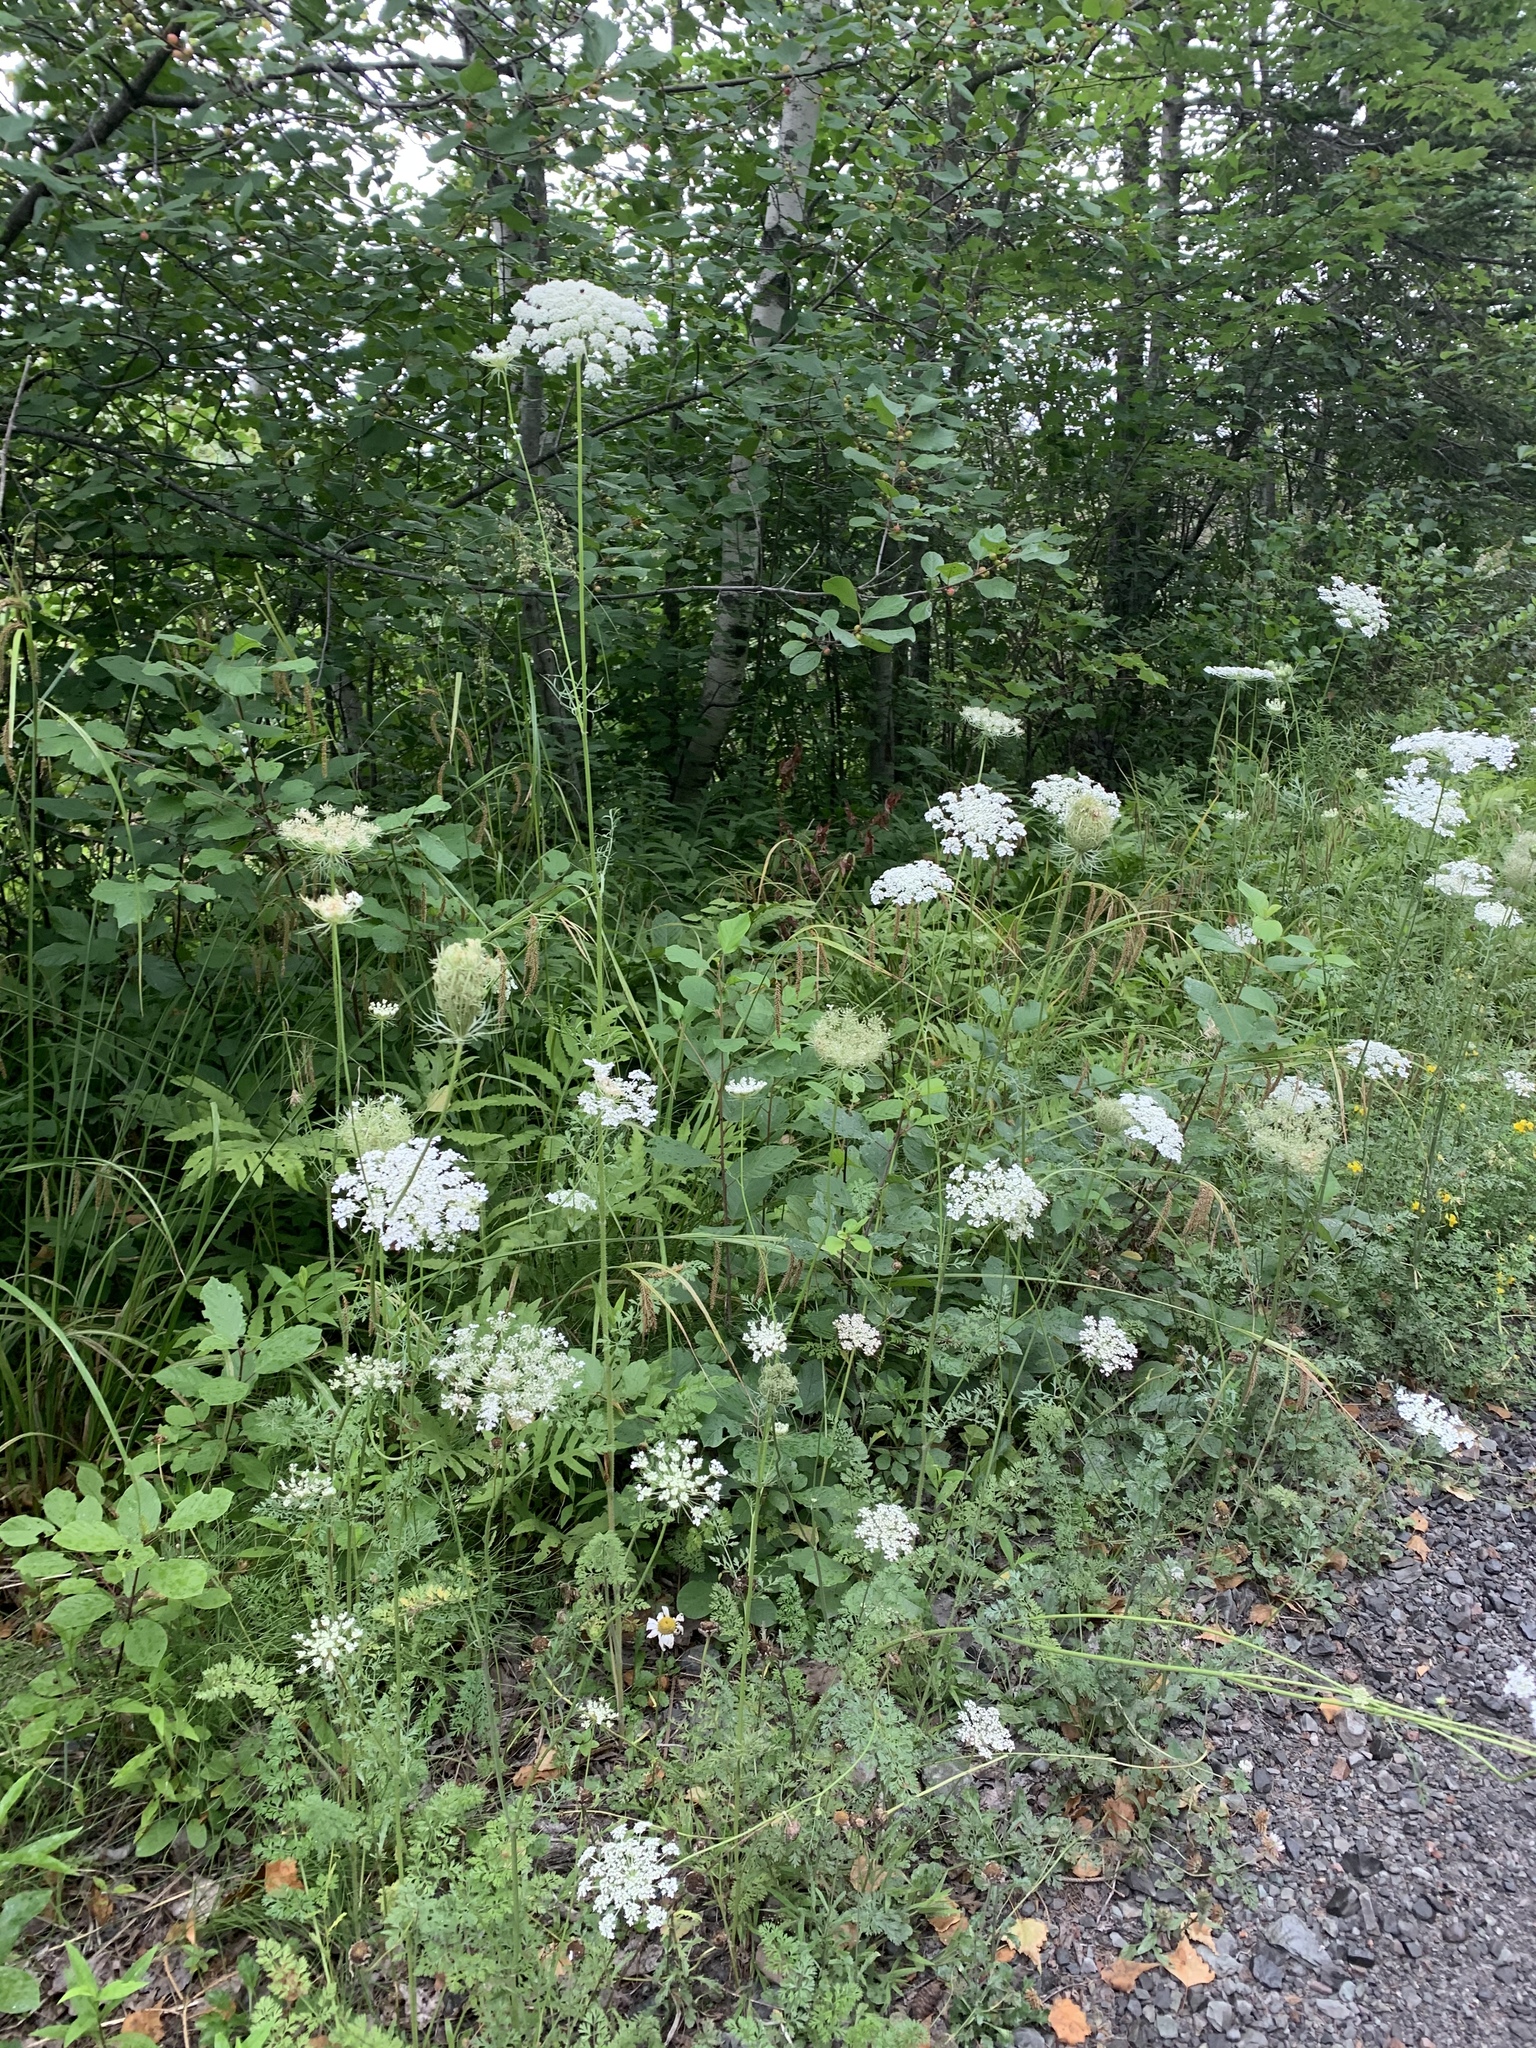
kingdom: Plantae
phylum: Tracheophyta
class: Magnoliopsida
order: Apiales
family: Apiaceae
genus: Daucus
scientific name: Daucus carota
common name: Wild carrot
